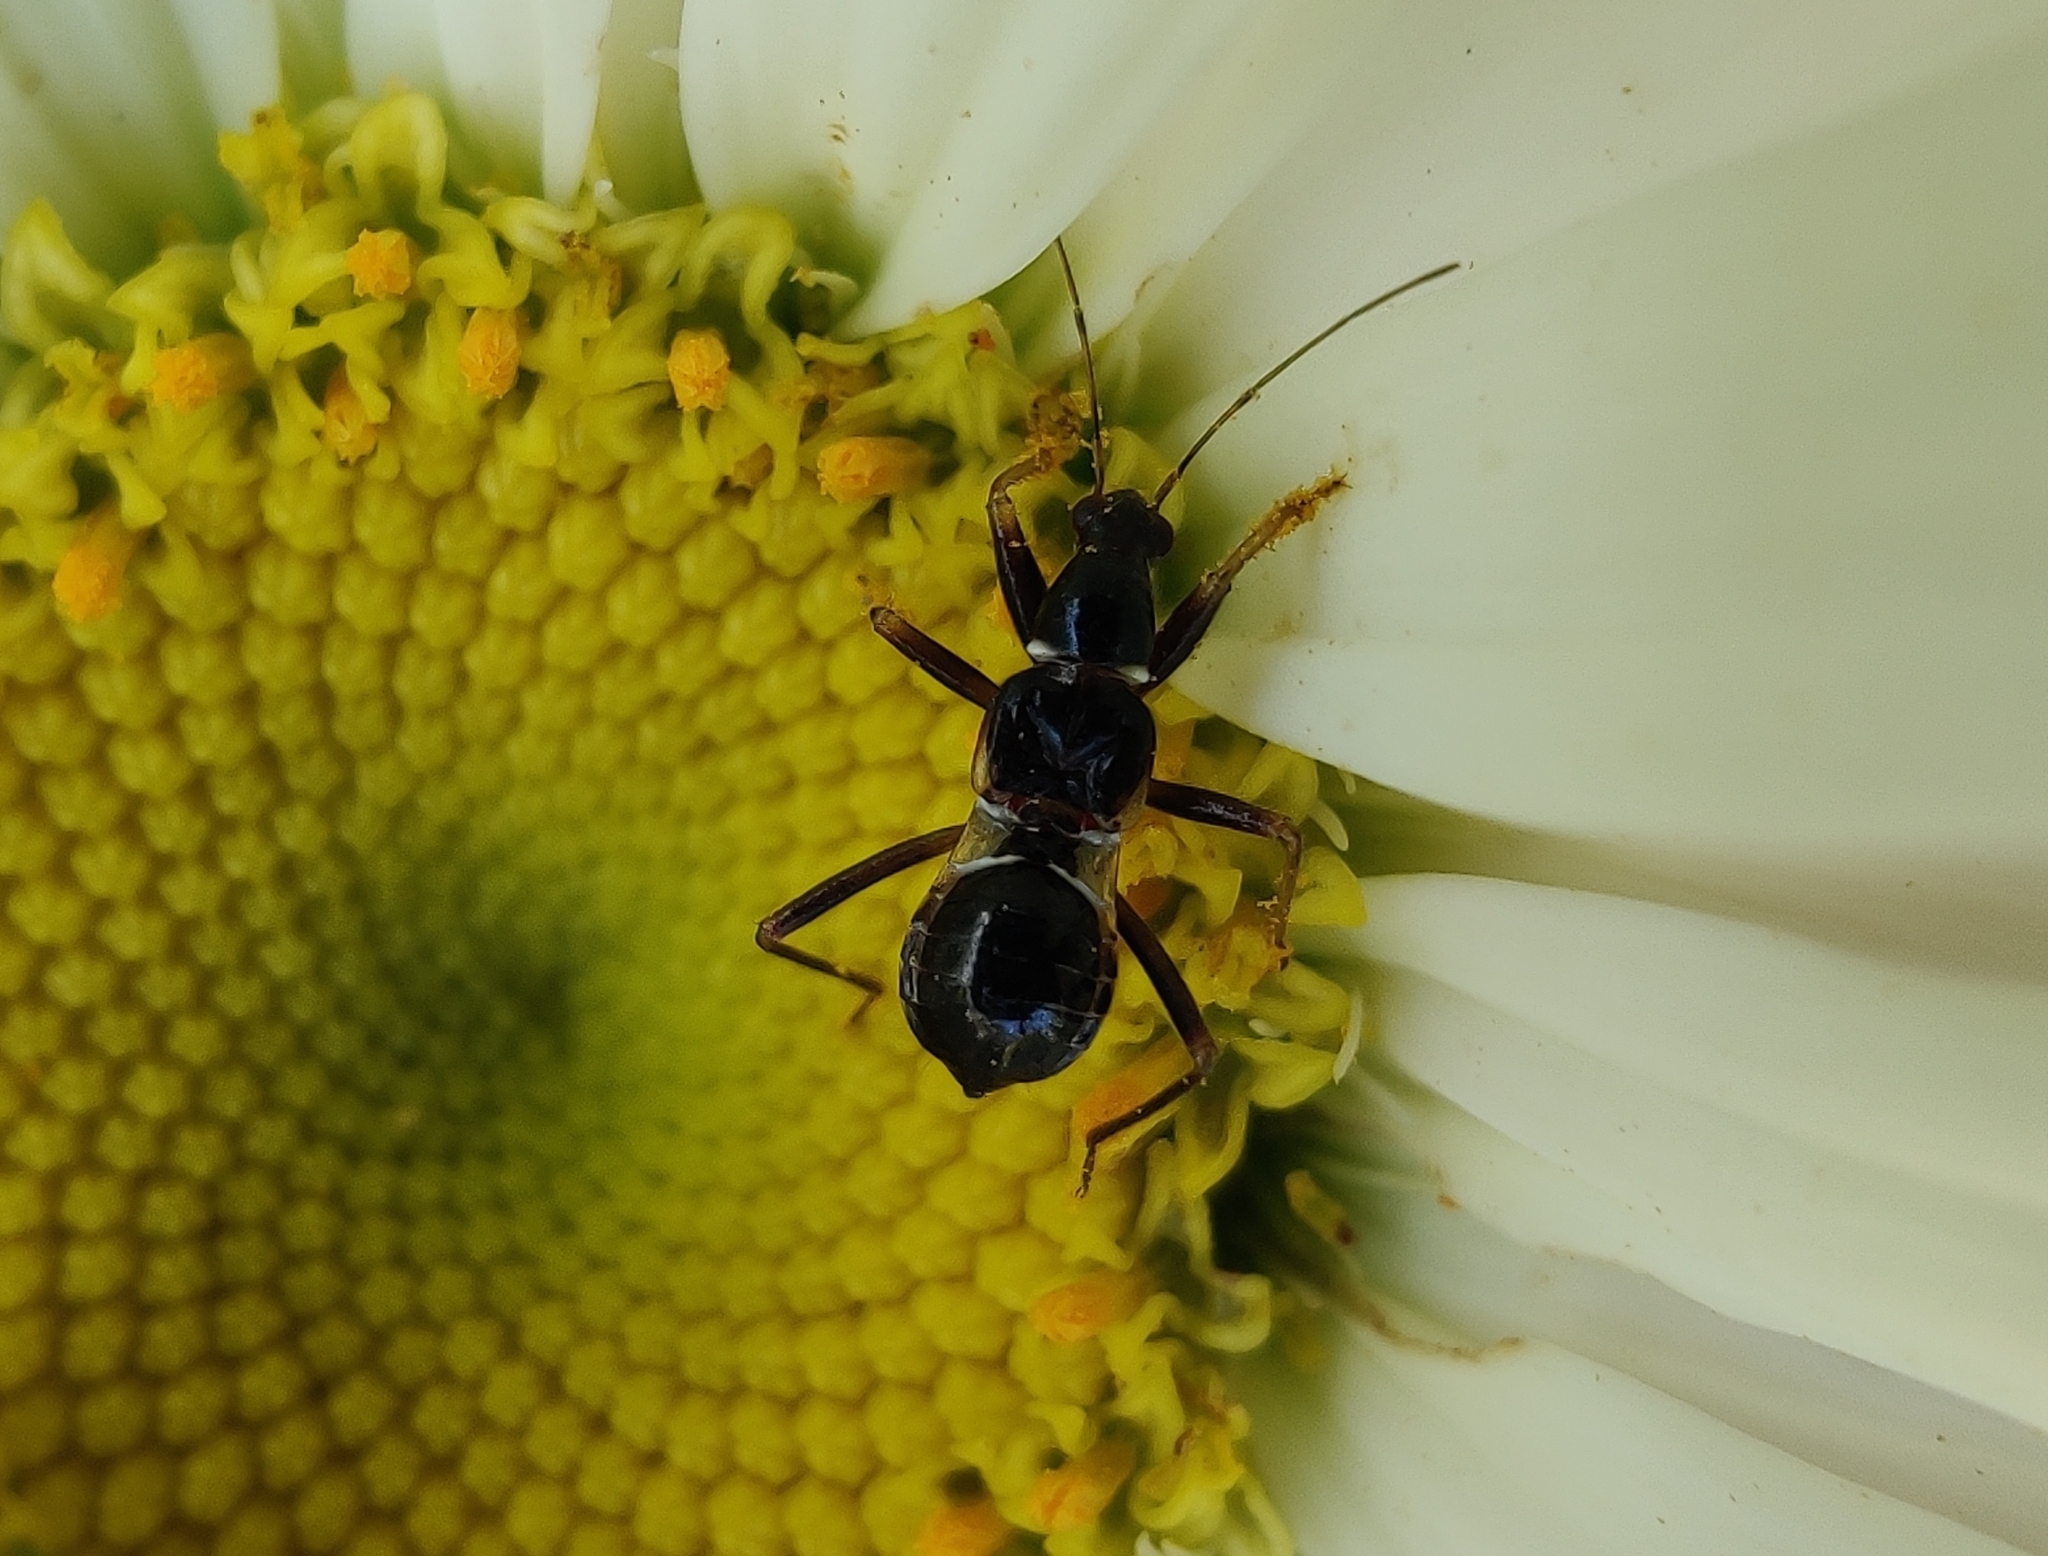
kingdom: Animalia
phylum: Arthropoda
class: Insecta
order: Hemiptera
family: Nabidae
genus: Himacerus
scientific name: Himacerus mirmicoides
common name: Ant damsel bug
